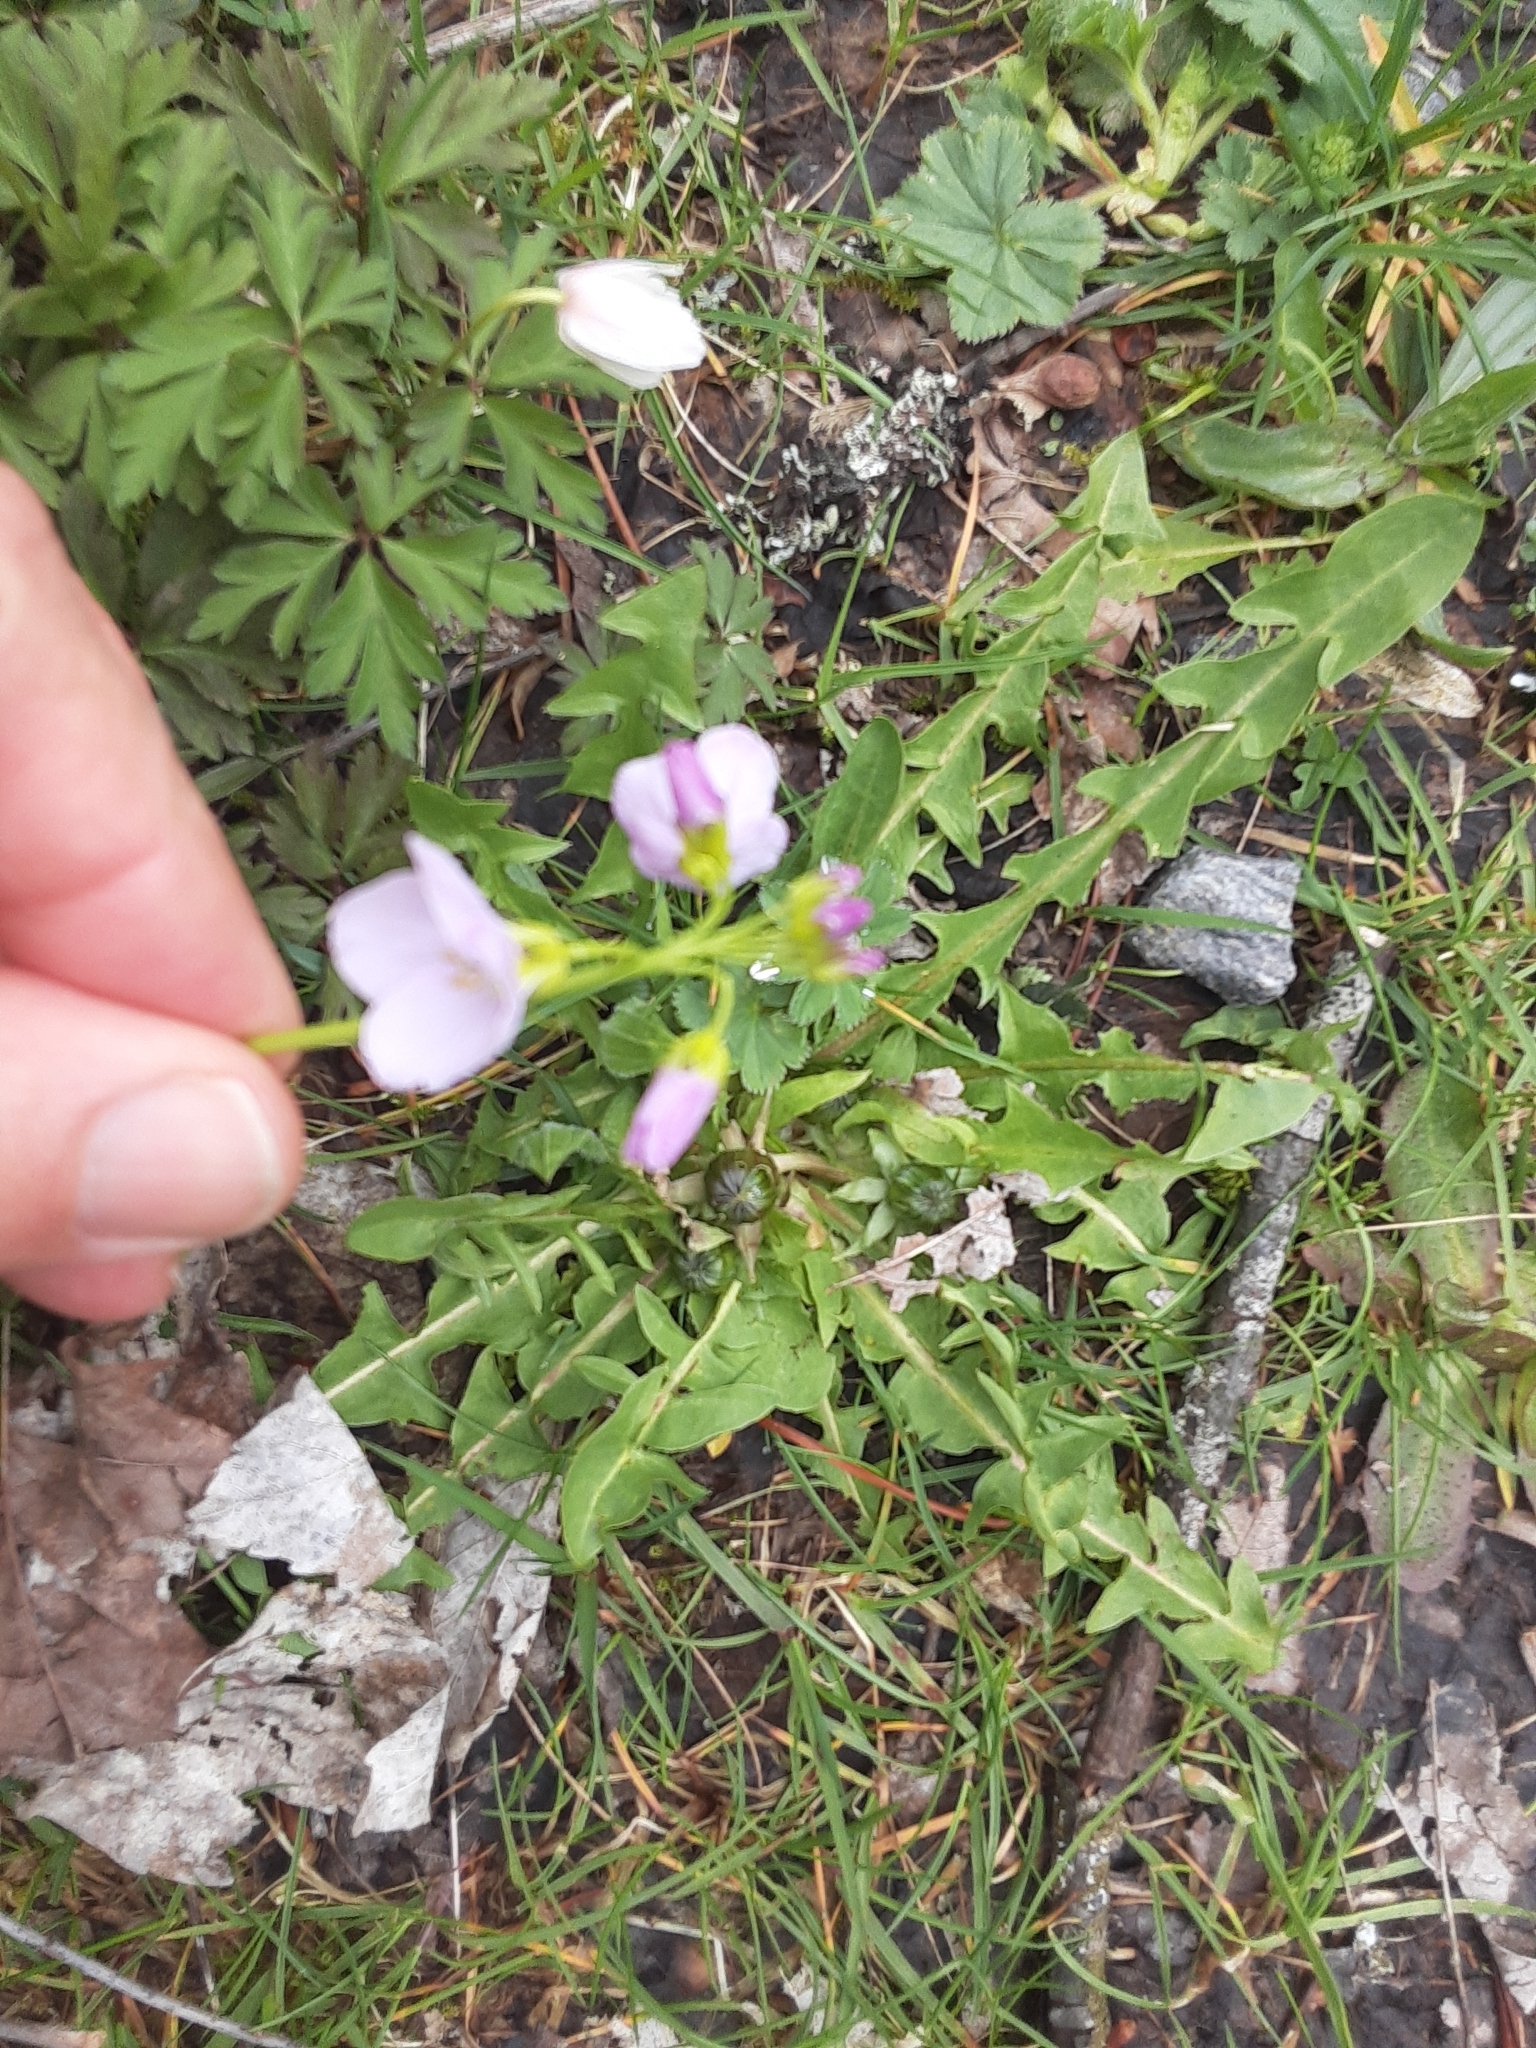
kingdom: Plantae
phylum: Tracheophyta
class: Magnoliopsida
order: Brassicales
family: Brassicaceae
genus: Cardamine
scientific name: Cardamine pratensis
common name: Cuckoo flower
